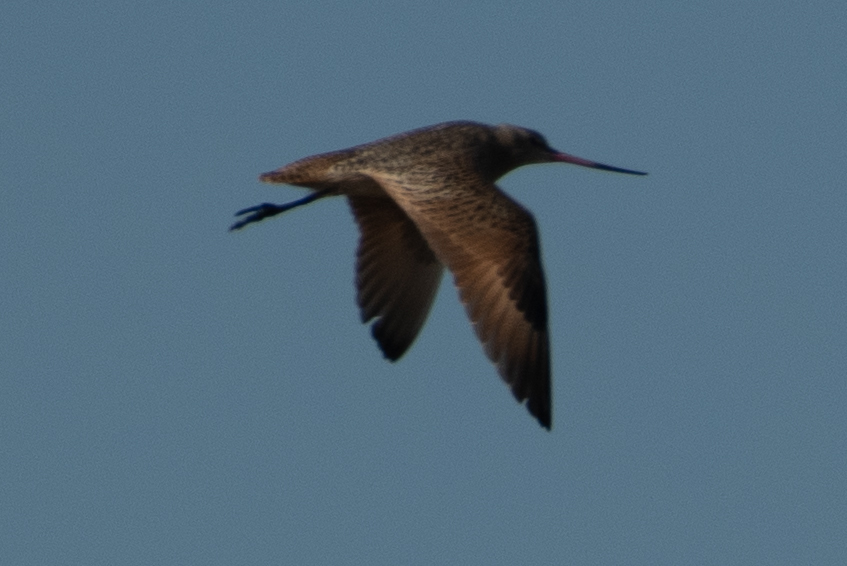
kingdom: Animalia
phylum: Chordata
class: Aves
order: Charadriiformes
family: Scolopacidae
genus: Limosa
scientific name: Limosa fedoa
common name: Marbled godwit
